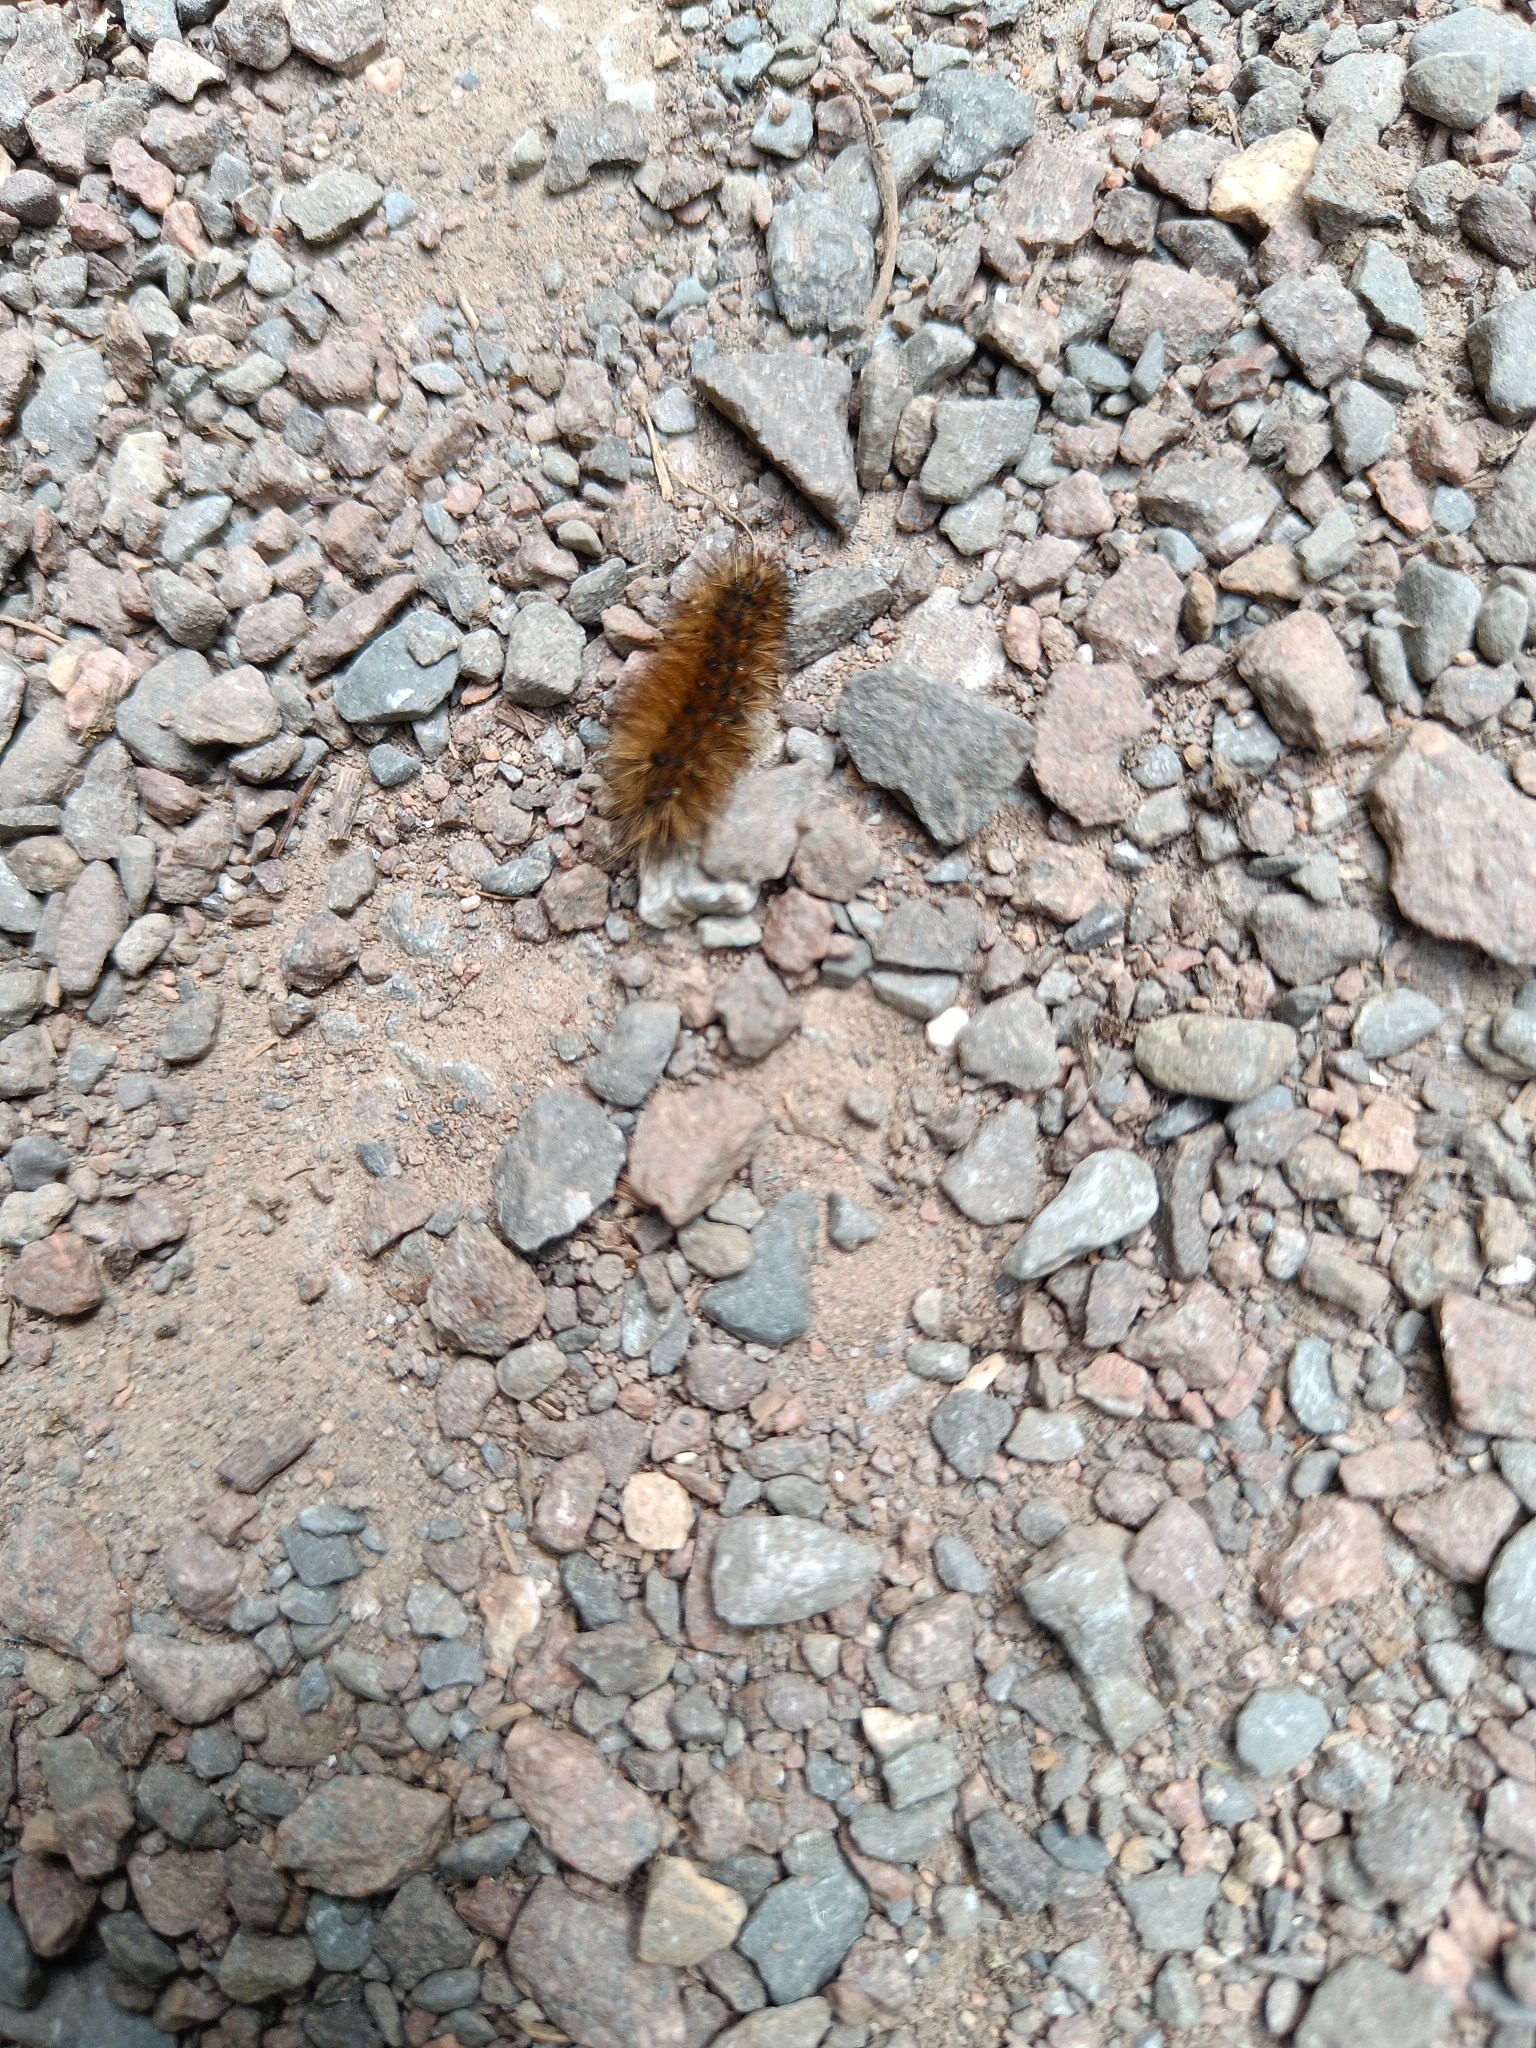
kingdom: Animalia
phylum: Arthropoda
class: Insecta
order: Lepidoptera
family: Erebidae
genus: Phragmatobia
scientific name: Phragmatobia fuliginosa
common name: Ruby tiger
